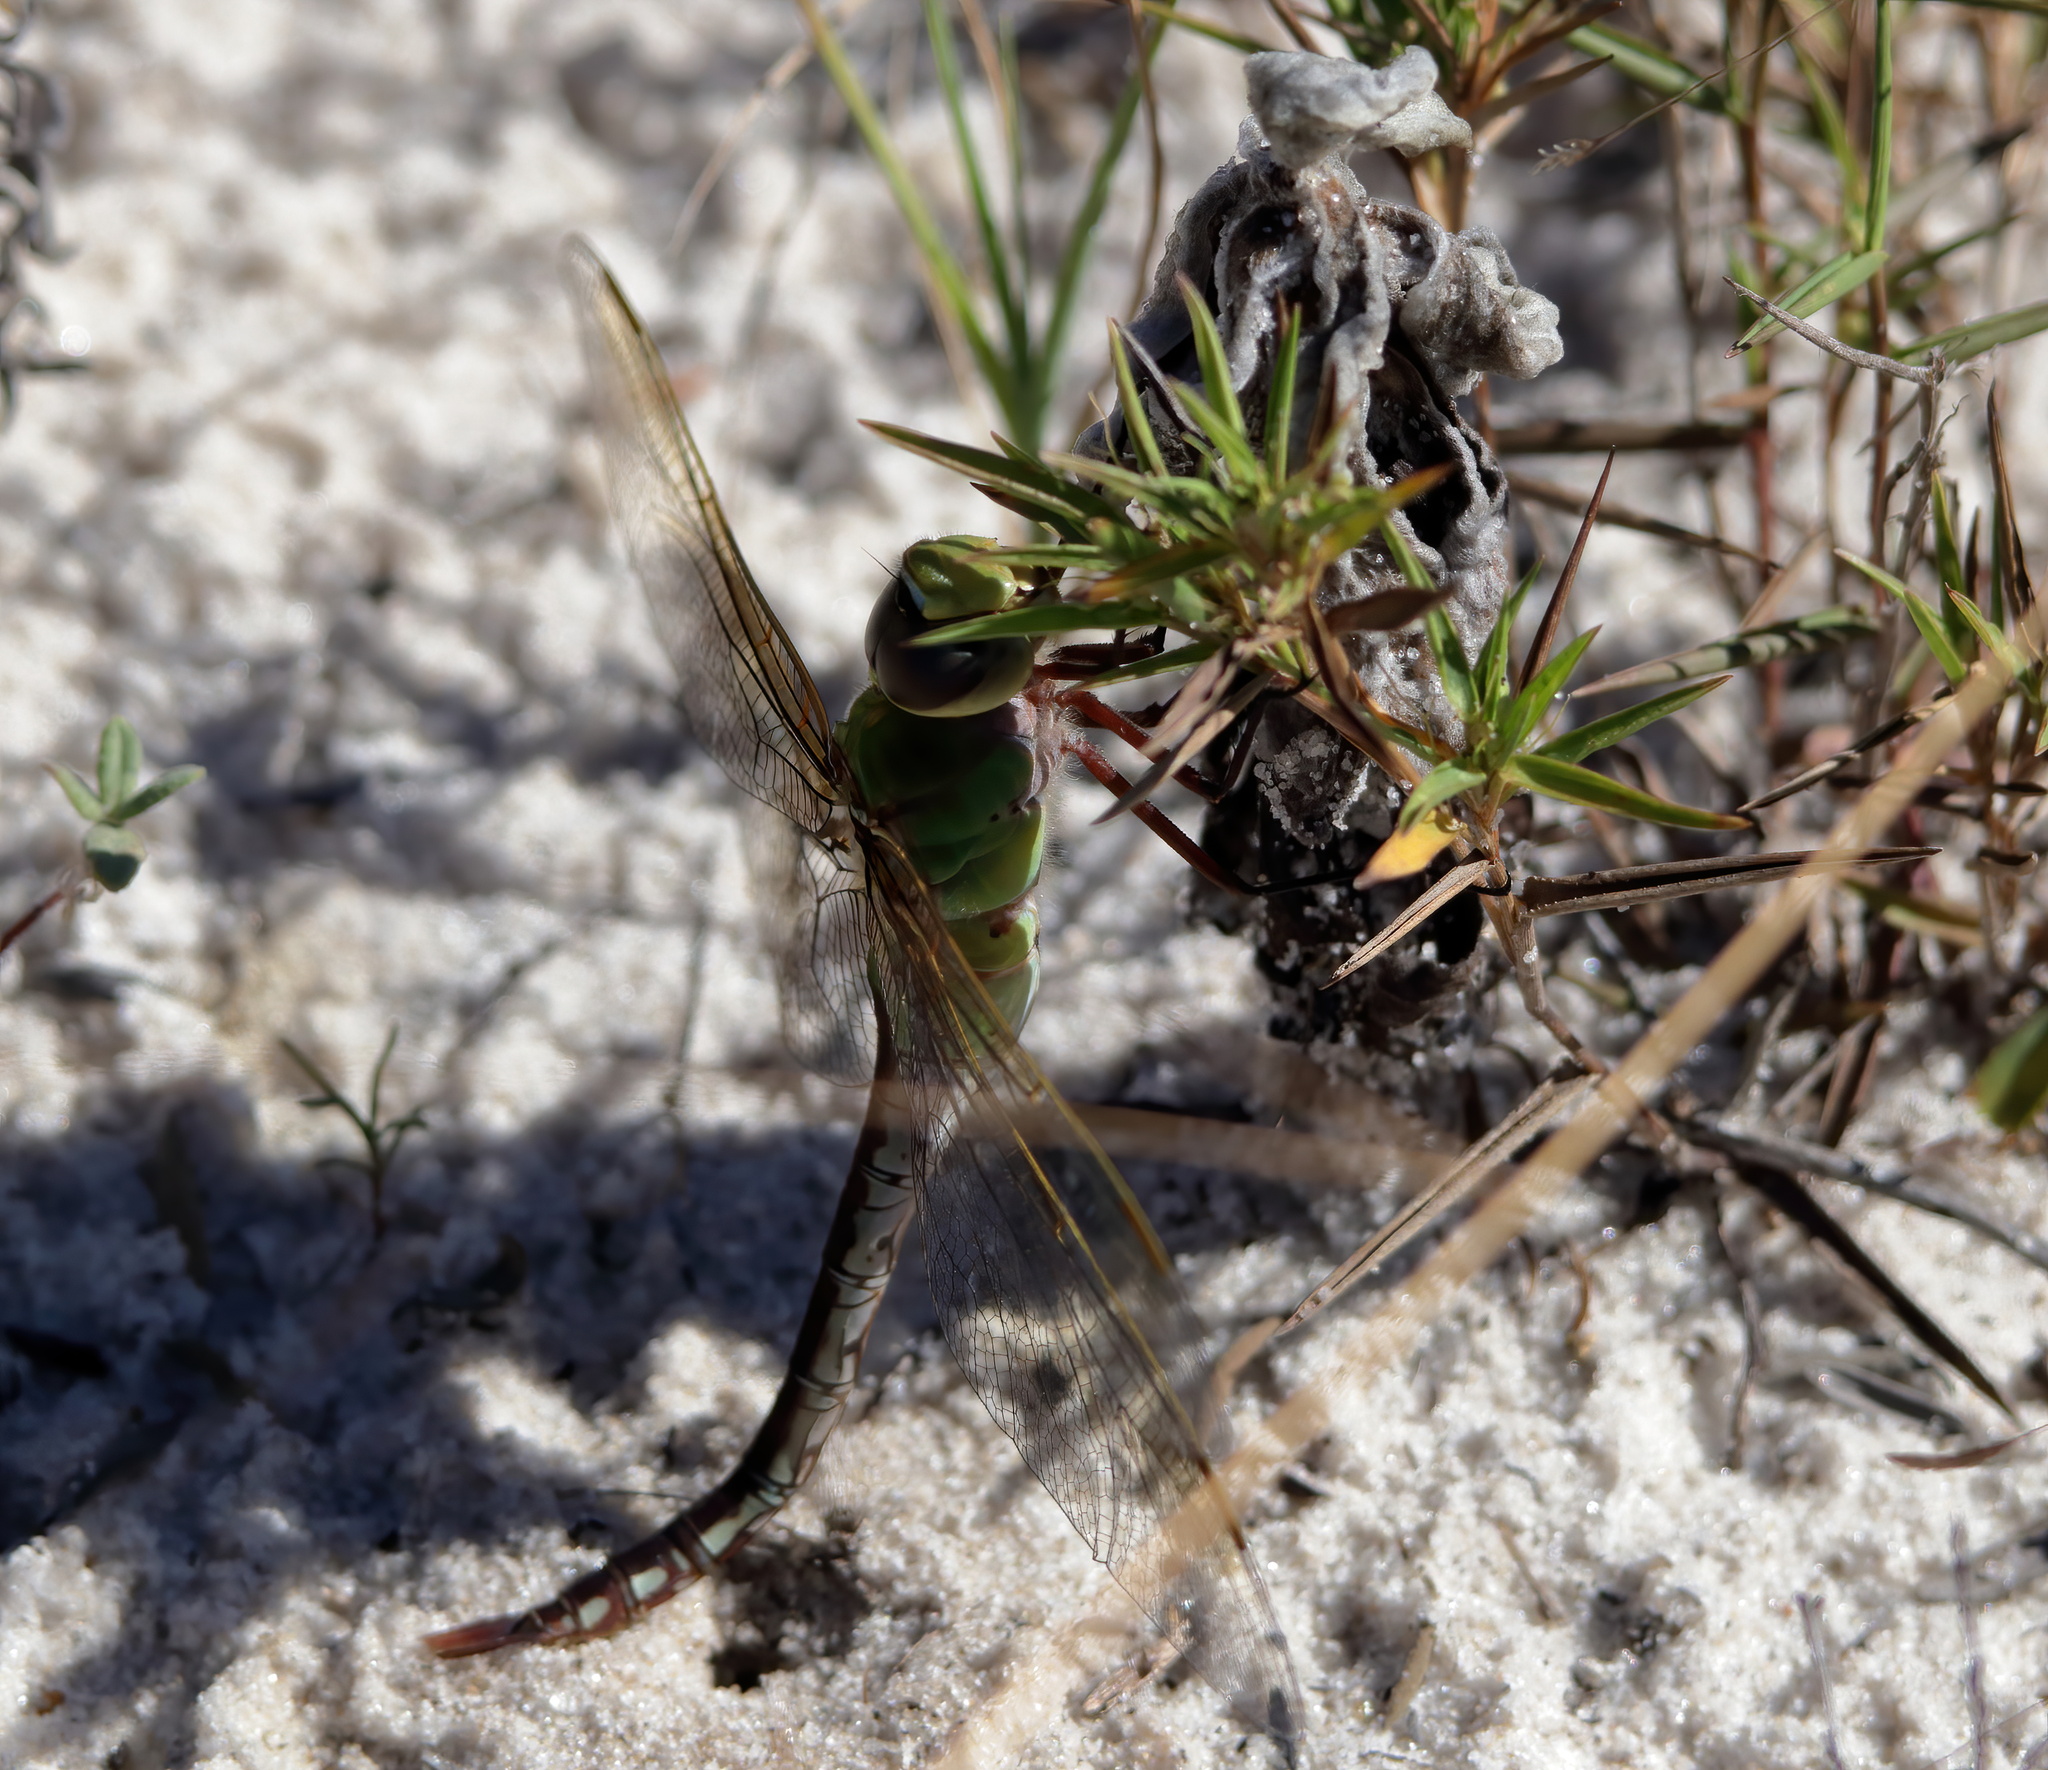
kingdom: Animalia
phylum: Arthropoda
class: Insecta
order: Odonata
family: Aeshnidae
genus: Anax
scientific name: Anax junius
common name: Common green darner
